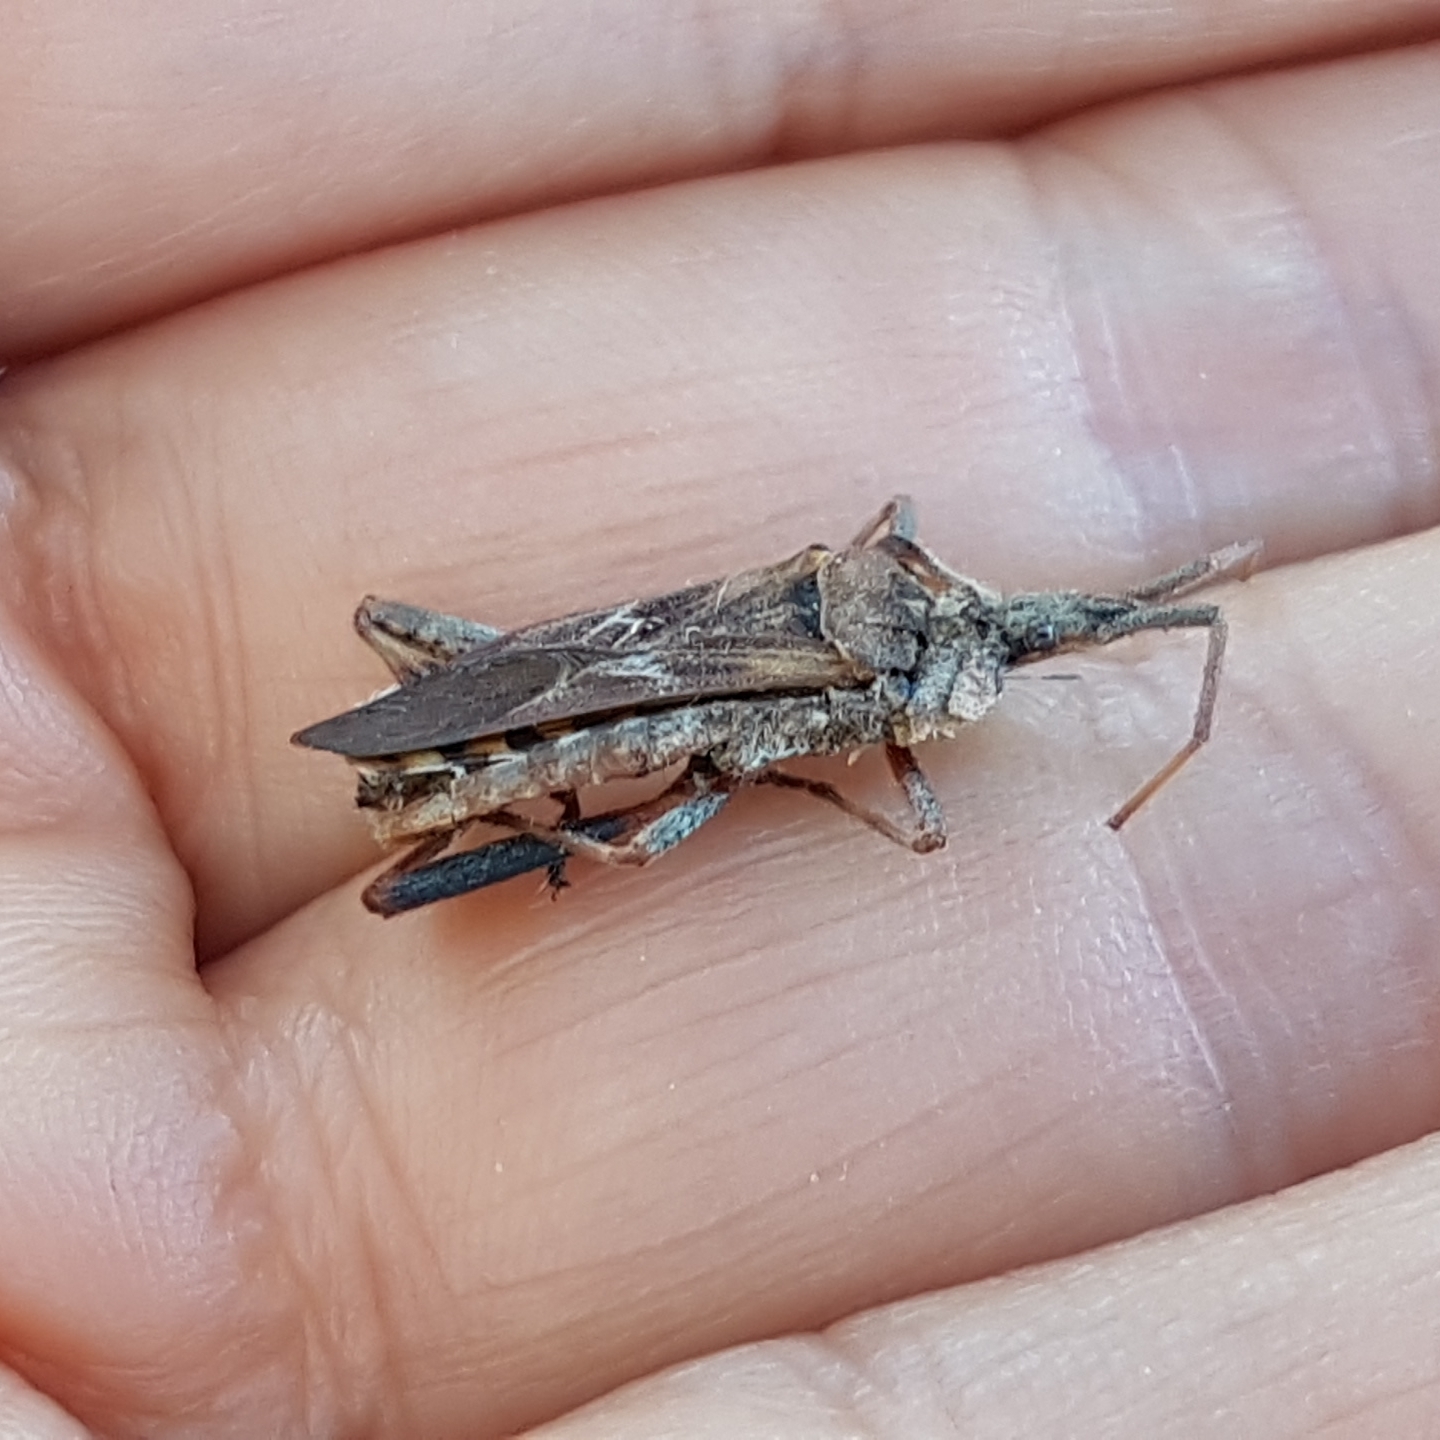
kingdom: Animalia
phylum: Arthropoda
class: Insecta
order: Hemiptera
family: Coreidae
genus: Leptoglossus
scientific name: Leptoglossus occidentalis
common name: Western conifer-seed bug
